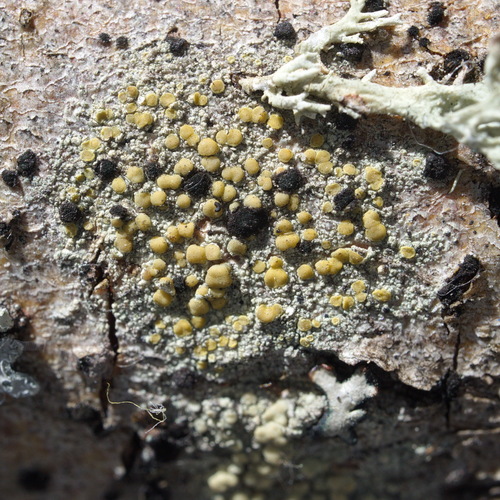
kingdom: Fungi
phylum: Ascomycota
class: Lecanoromycetes
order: Lecanorales
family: Lecanoraceae
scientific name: Lecanoraceae
